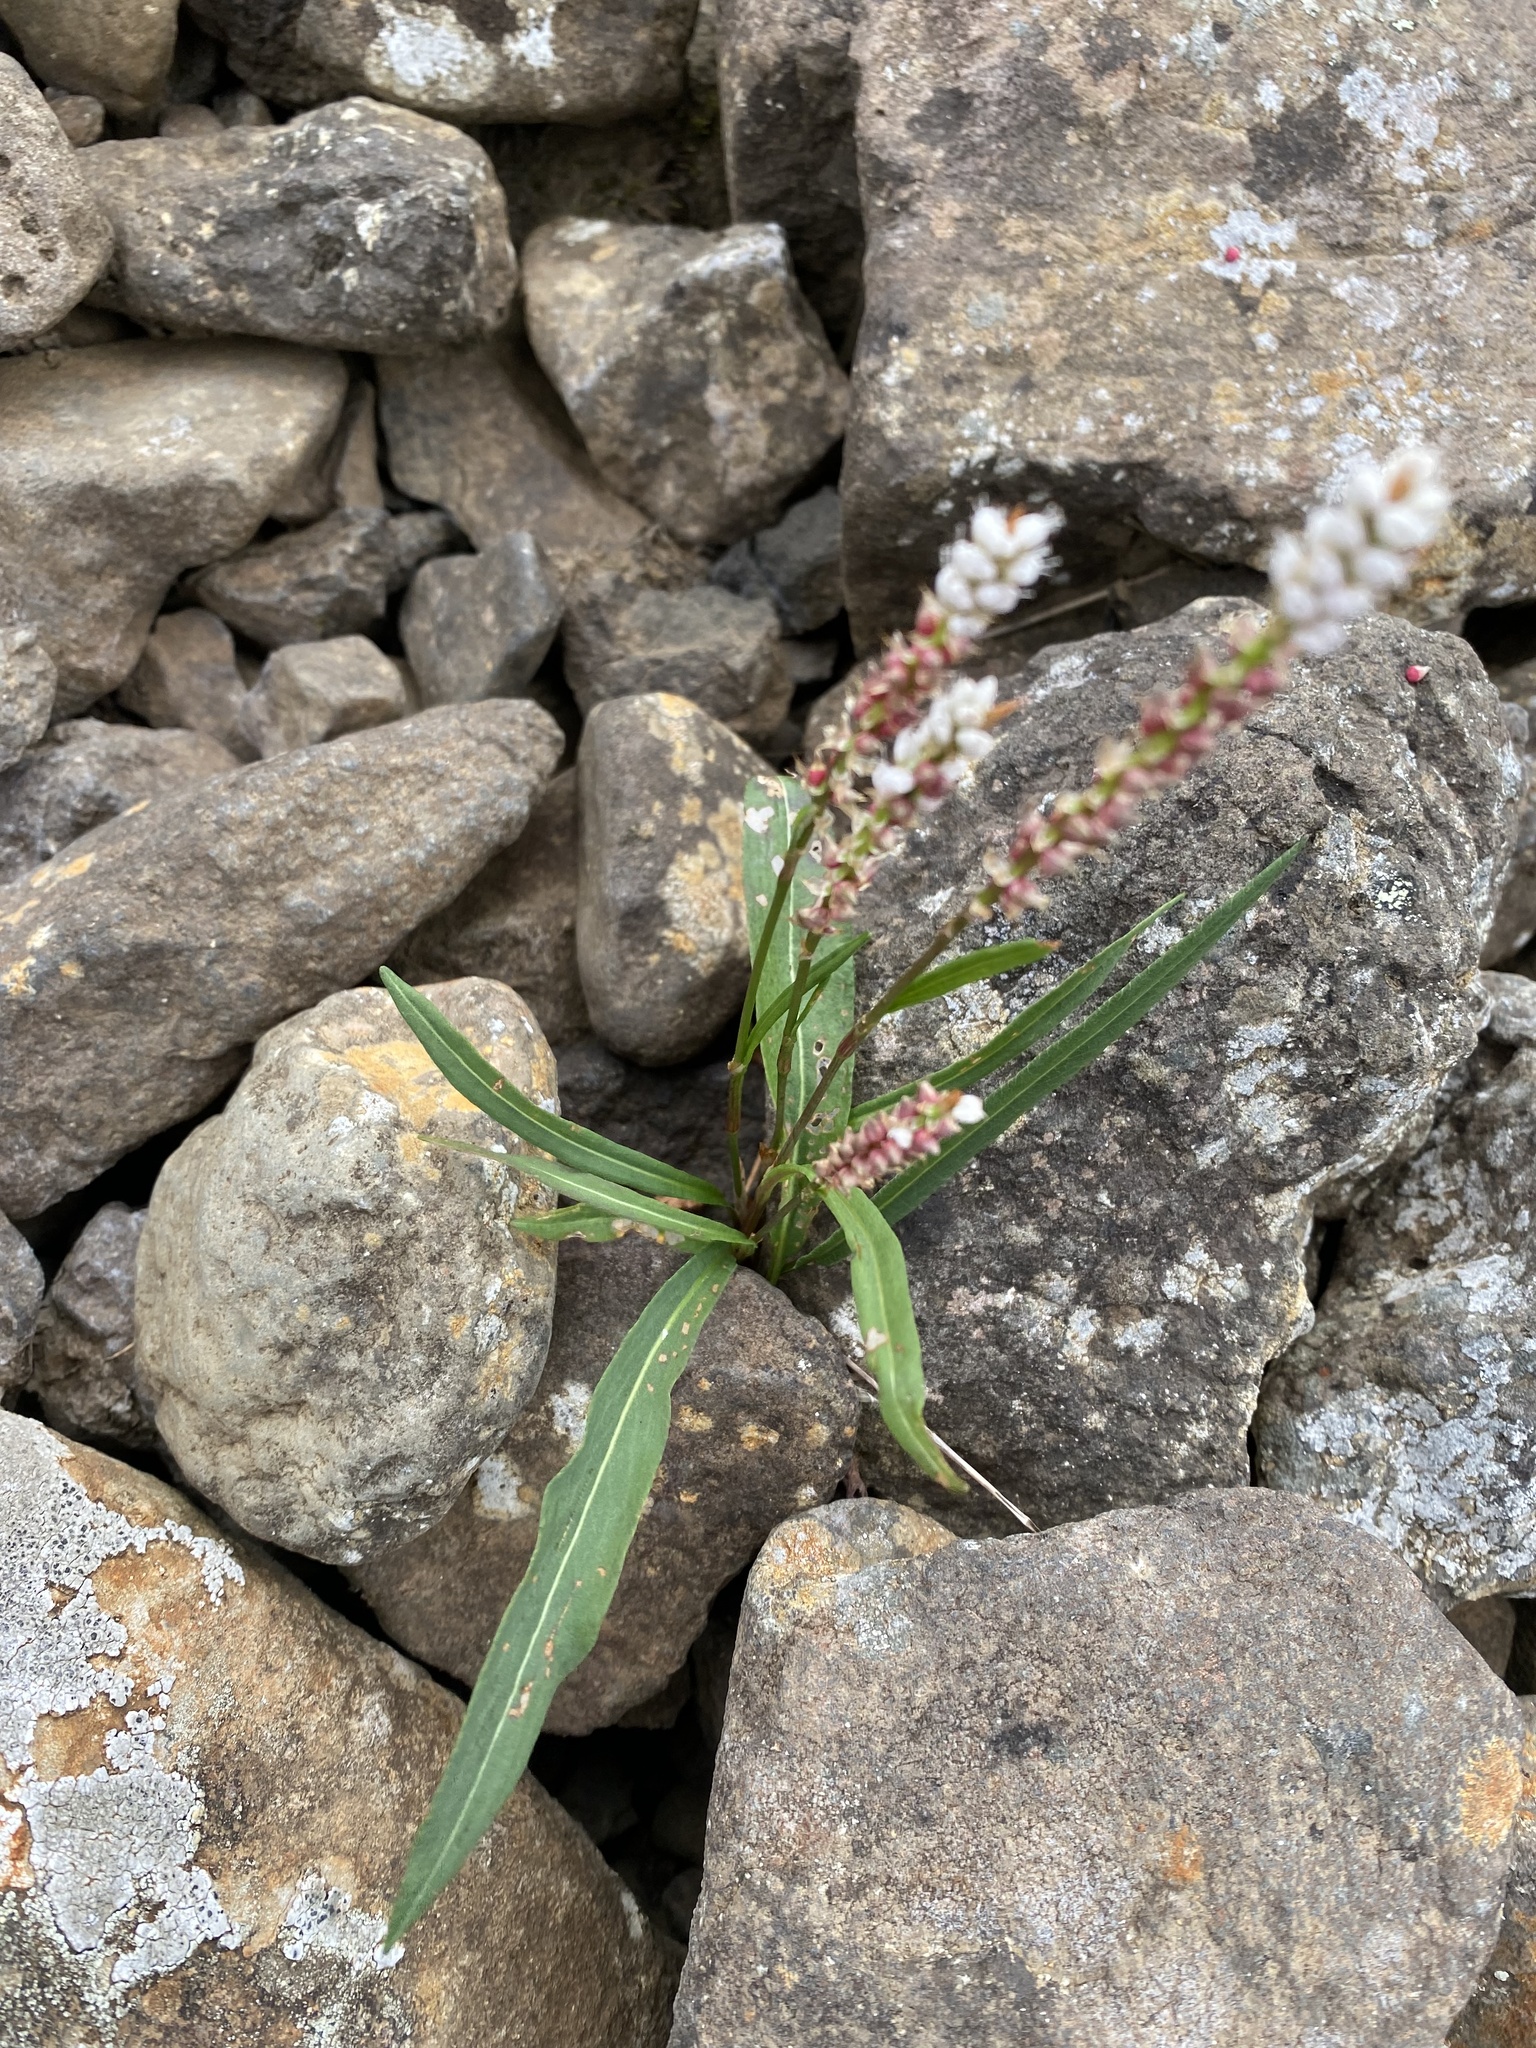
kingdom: Plantae
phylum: Tracheophyta
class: Magnoliopsida
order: Caryophyllales
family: Polygonaceae
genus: Bistorta
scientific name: Bistorta vivipara
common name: Alpine bistort
